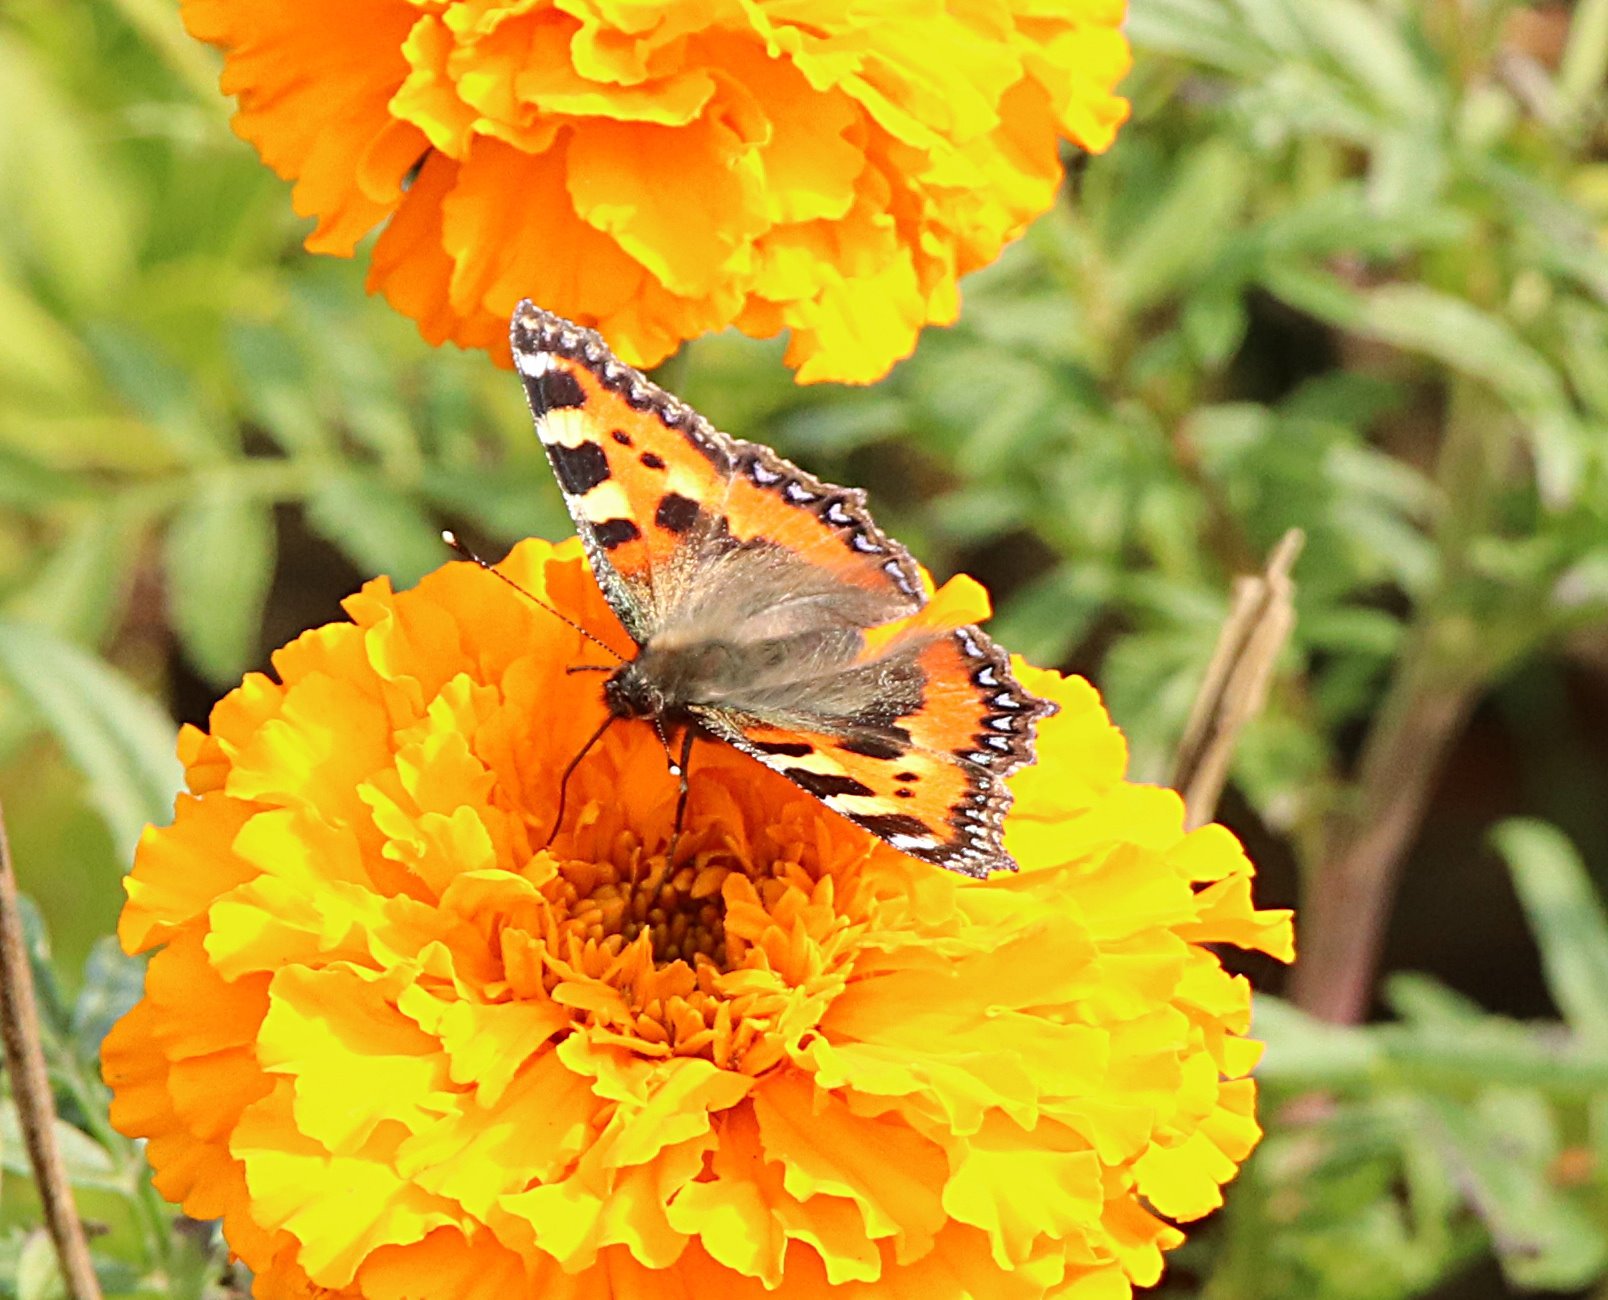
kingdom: Animalia
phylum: Arthropoda
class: Insecta
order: Lepidoptera
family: Nymphalidae
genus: Aglais
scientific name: Aglais urticae
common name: Small tortoiseshell
